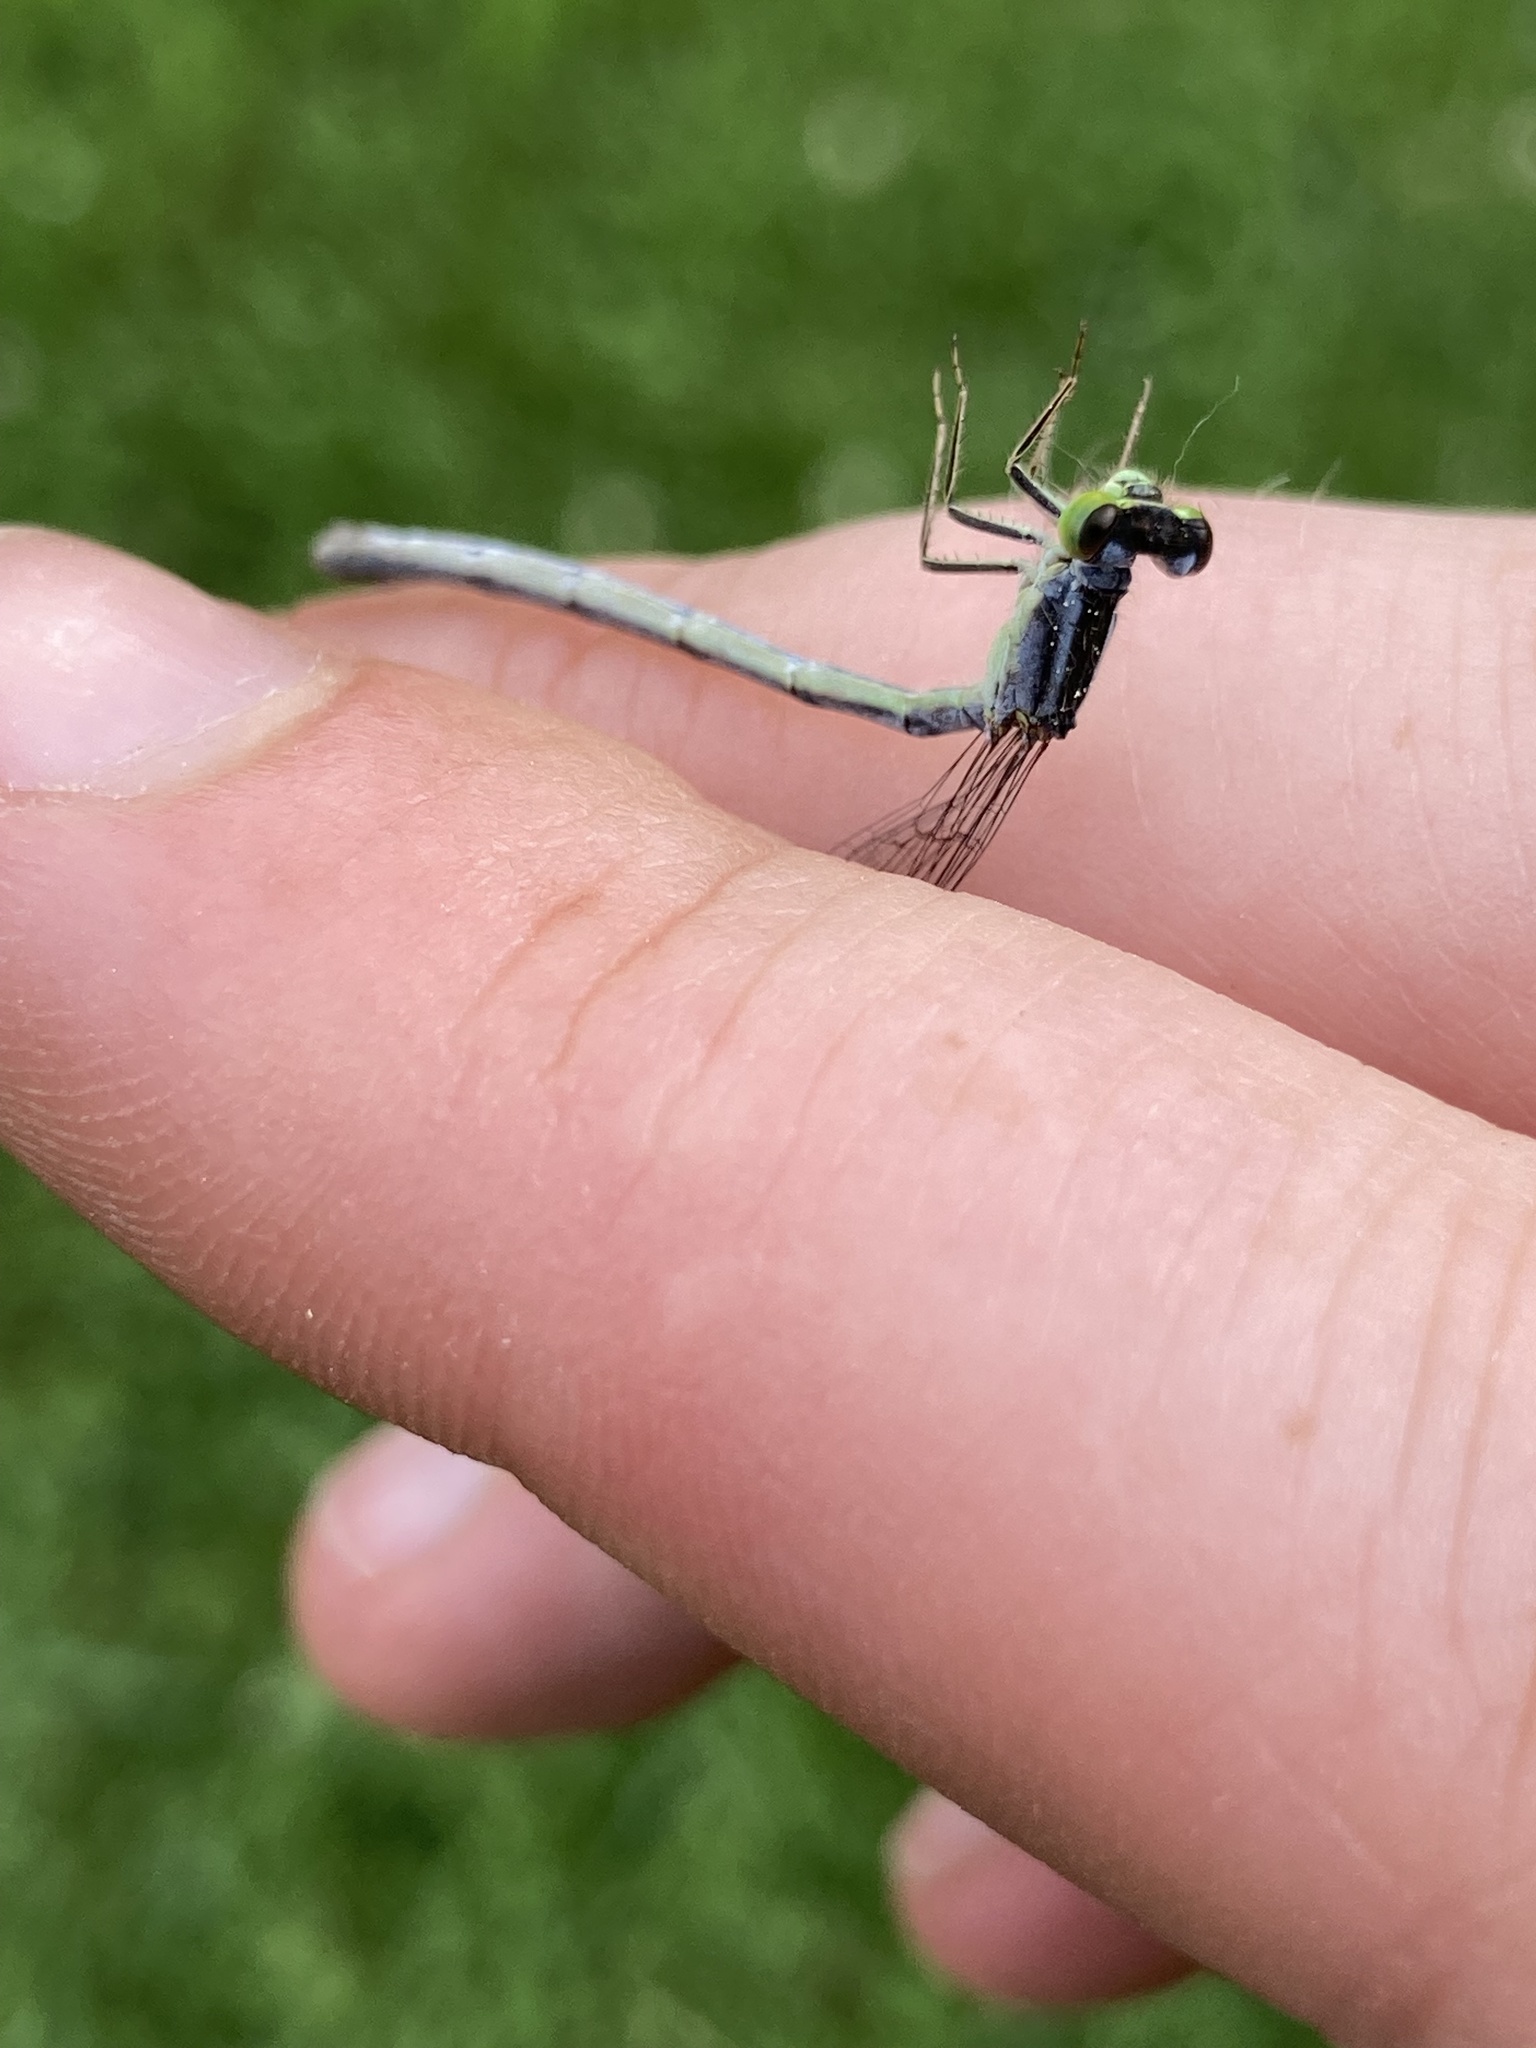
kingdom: Animalia
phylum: Arthropoda
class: Insecta
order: Odonata
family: Coenagrionidae
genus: Ischnura
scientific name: Ischnura verticalis
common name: Eastern forktail
